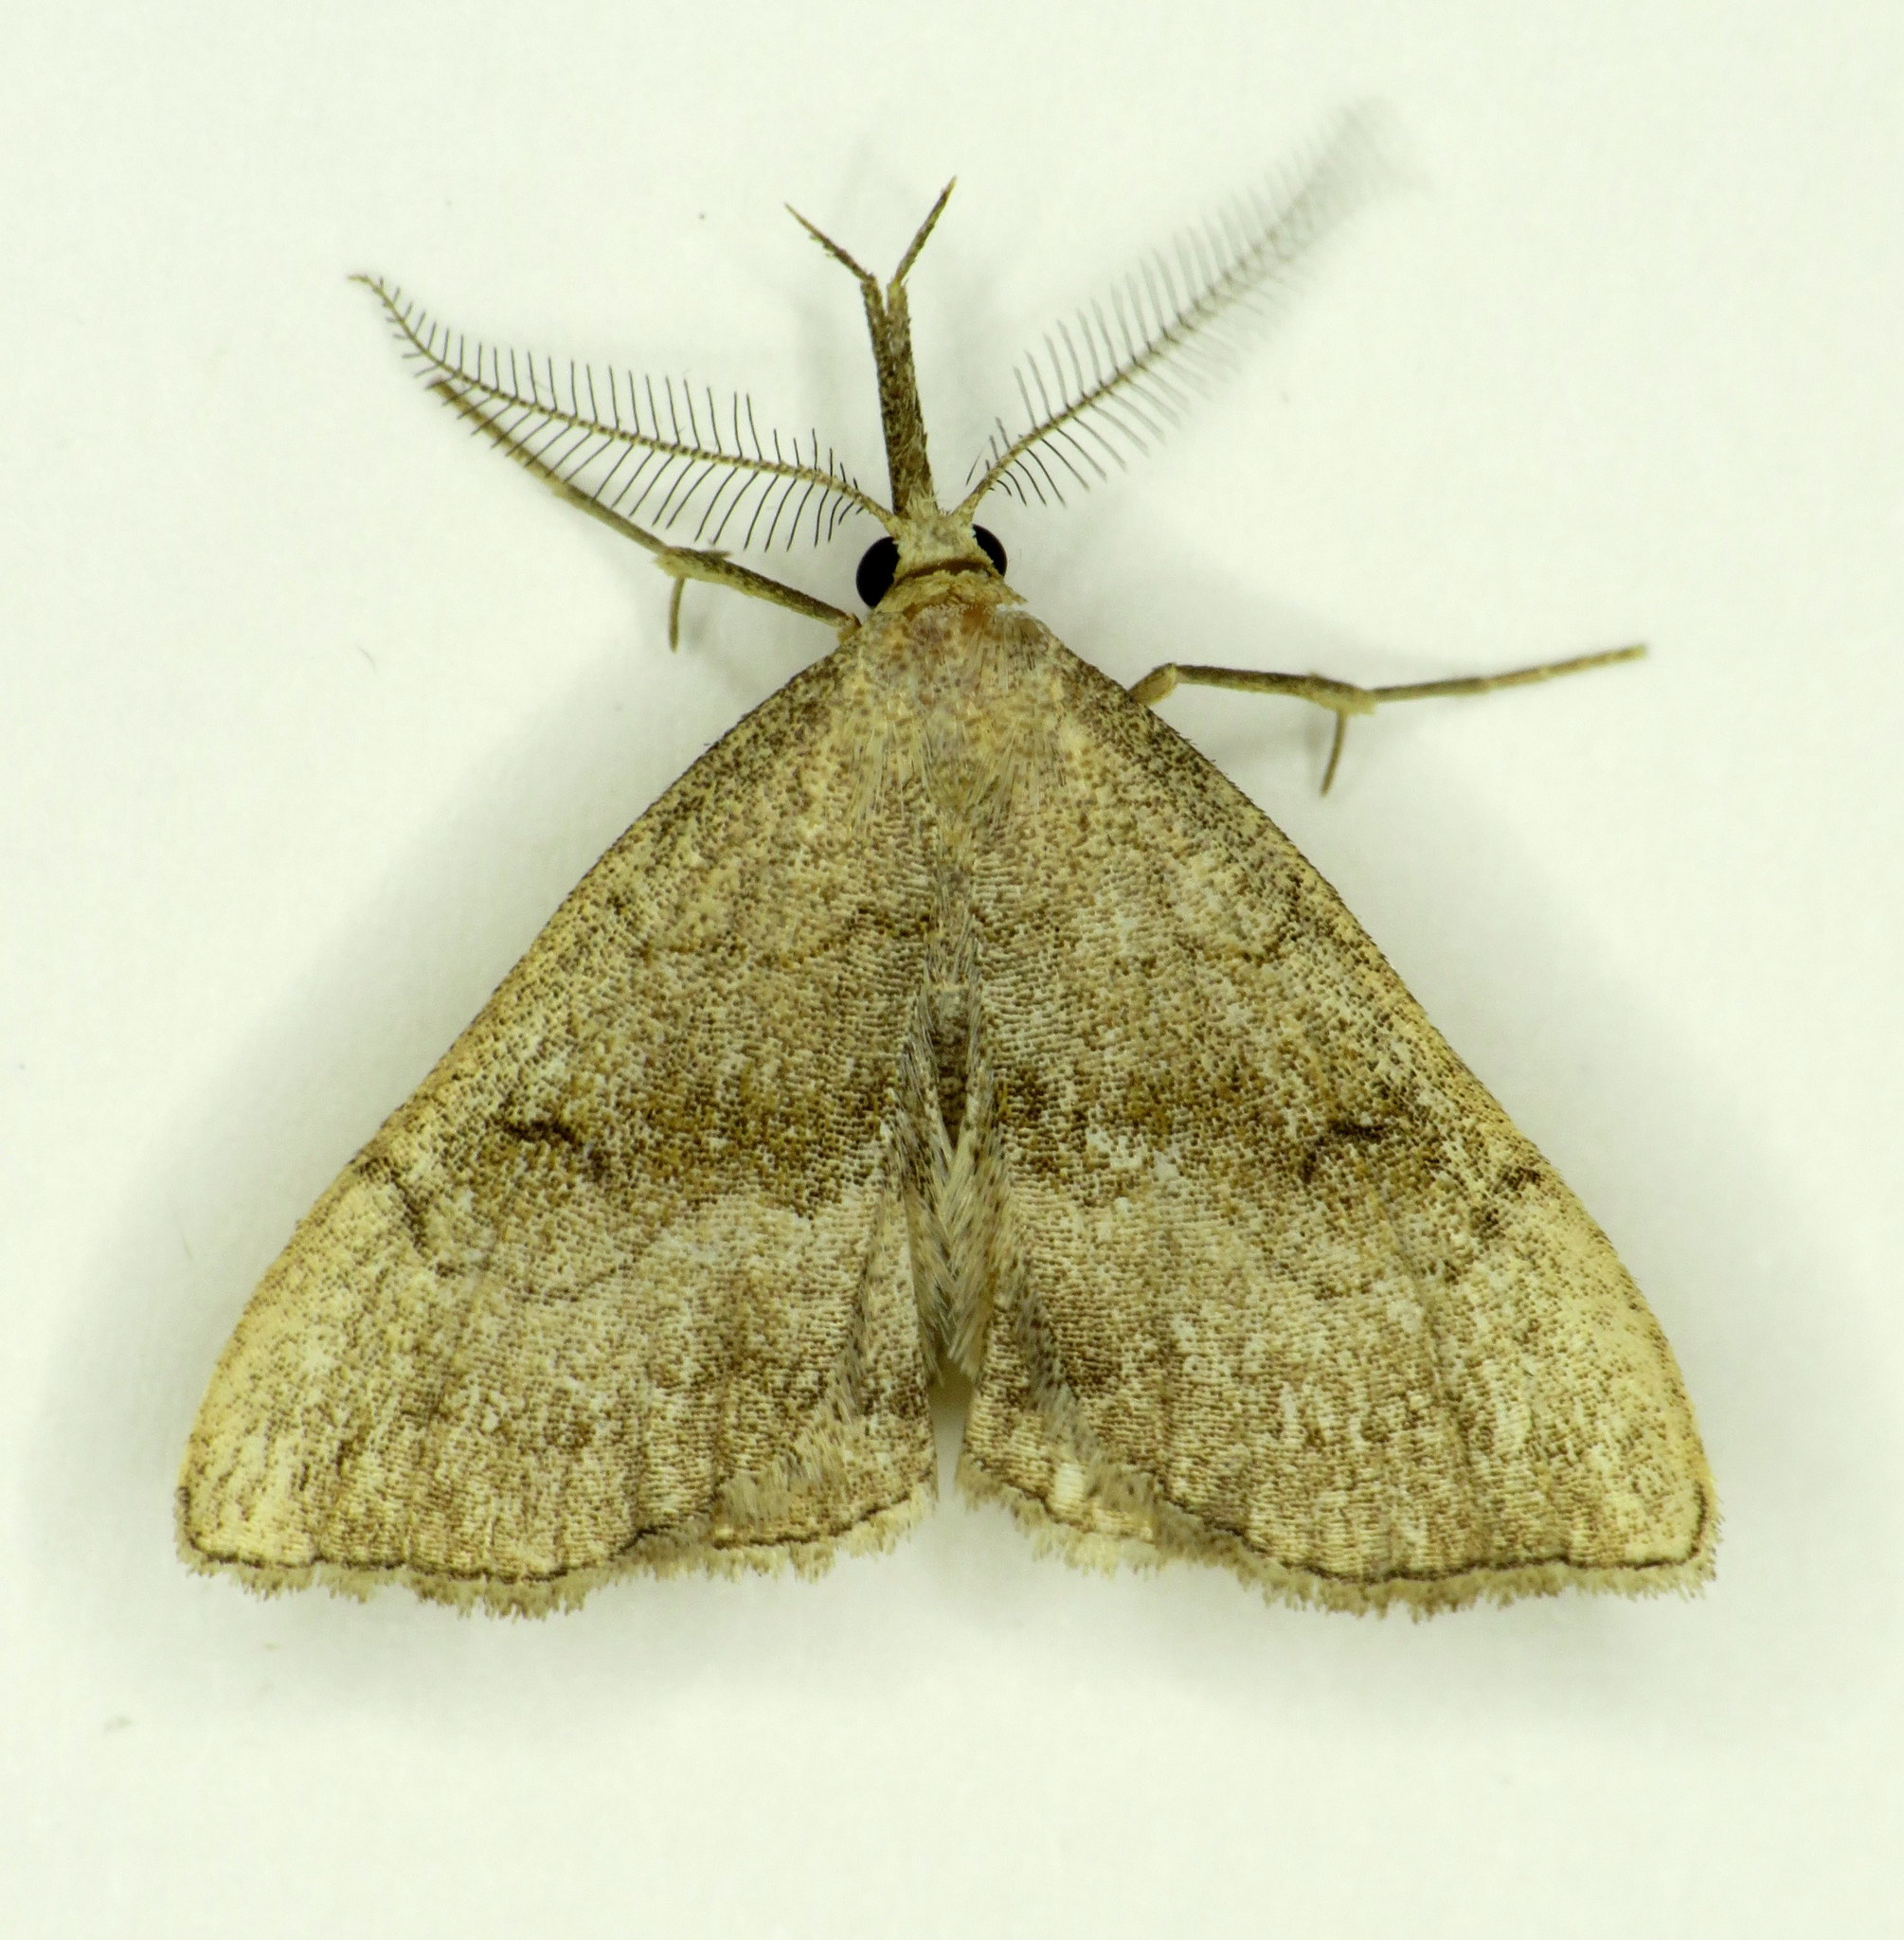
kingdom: Animalia
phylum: Arthropoda
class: Insecta
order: Lepidoptera
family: Erebidae
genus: Phalaenostola
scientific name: Phalaenostola metonalis
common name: Pale phalaenostola moth
